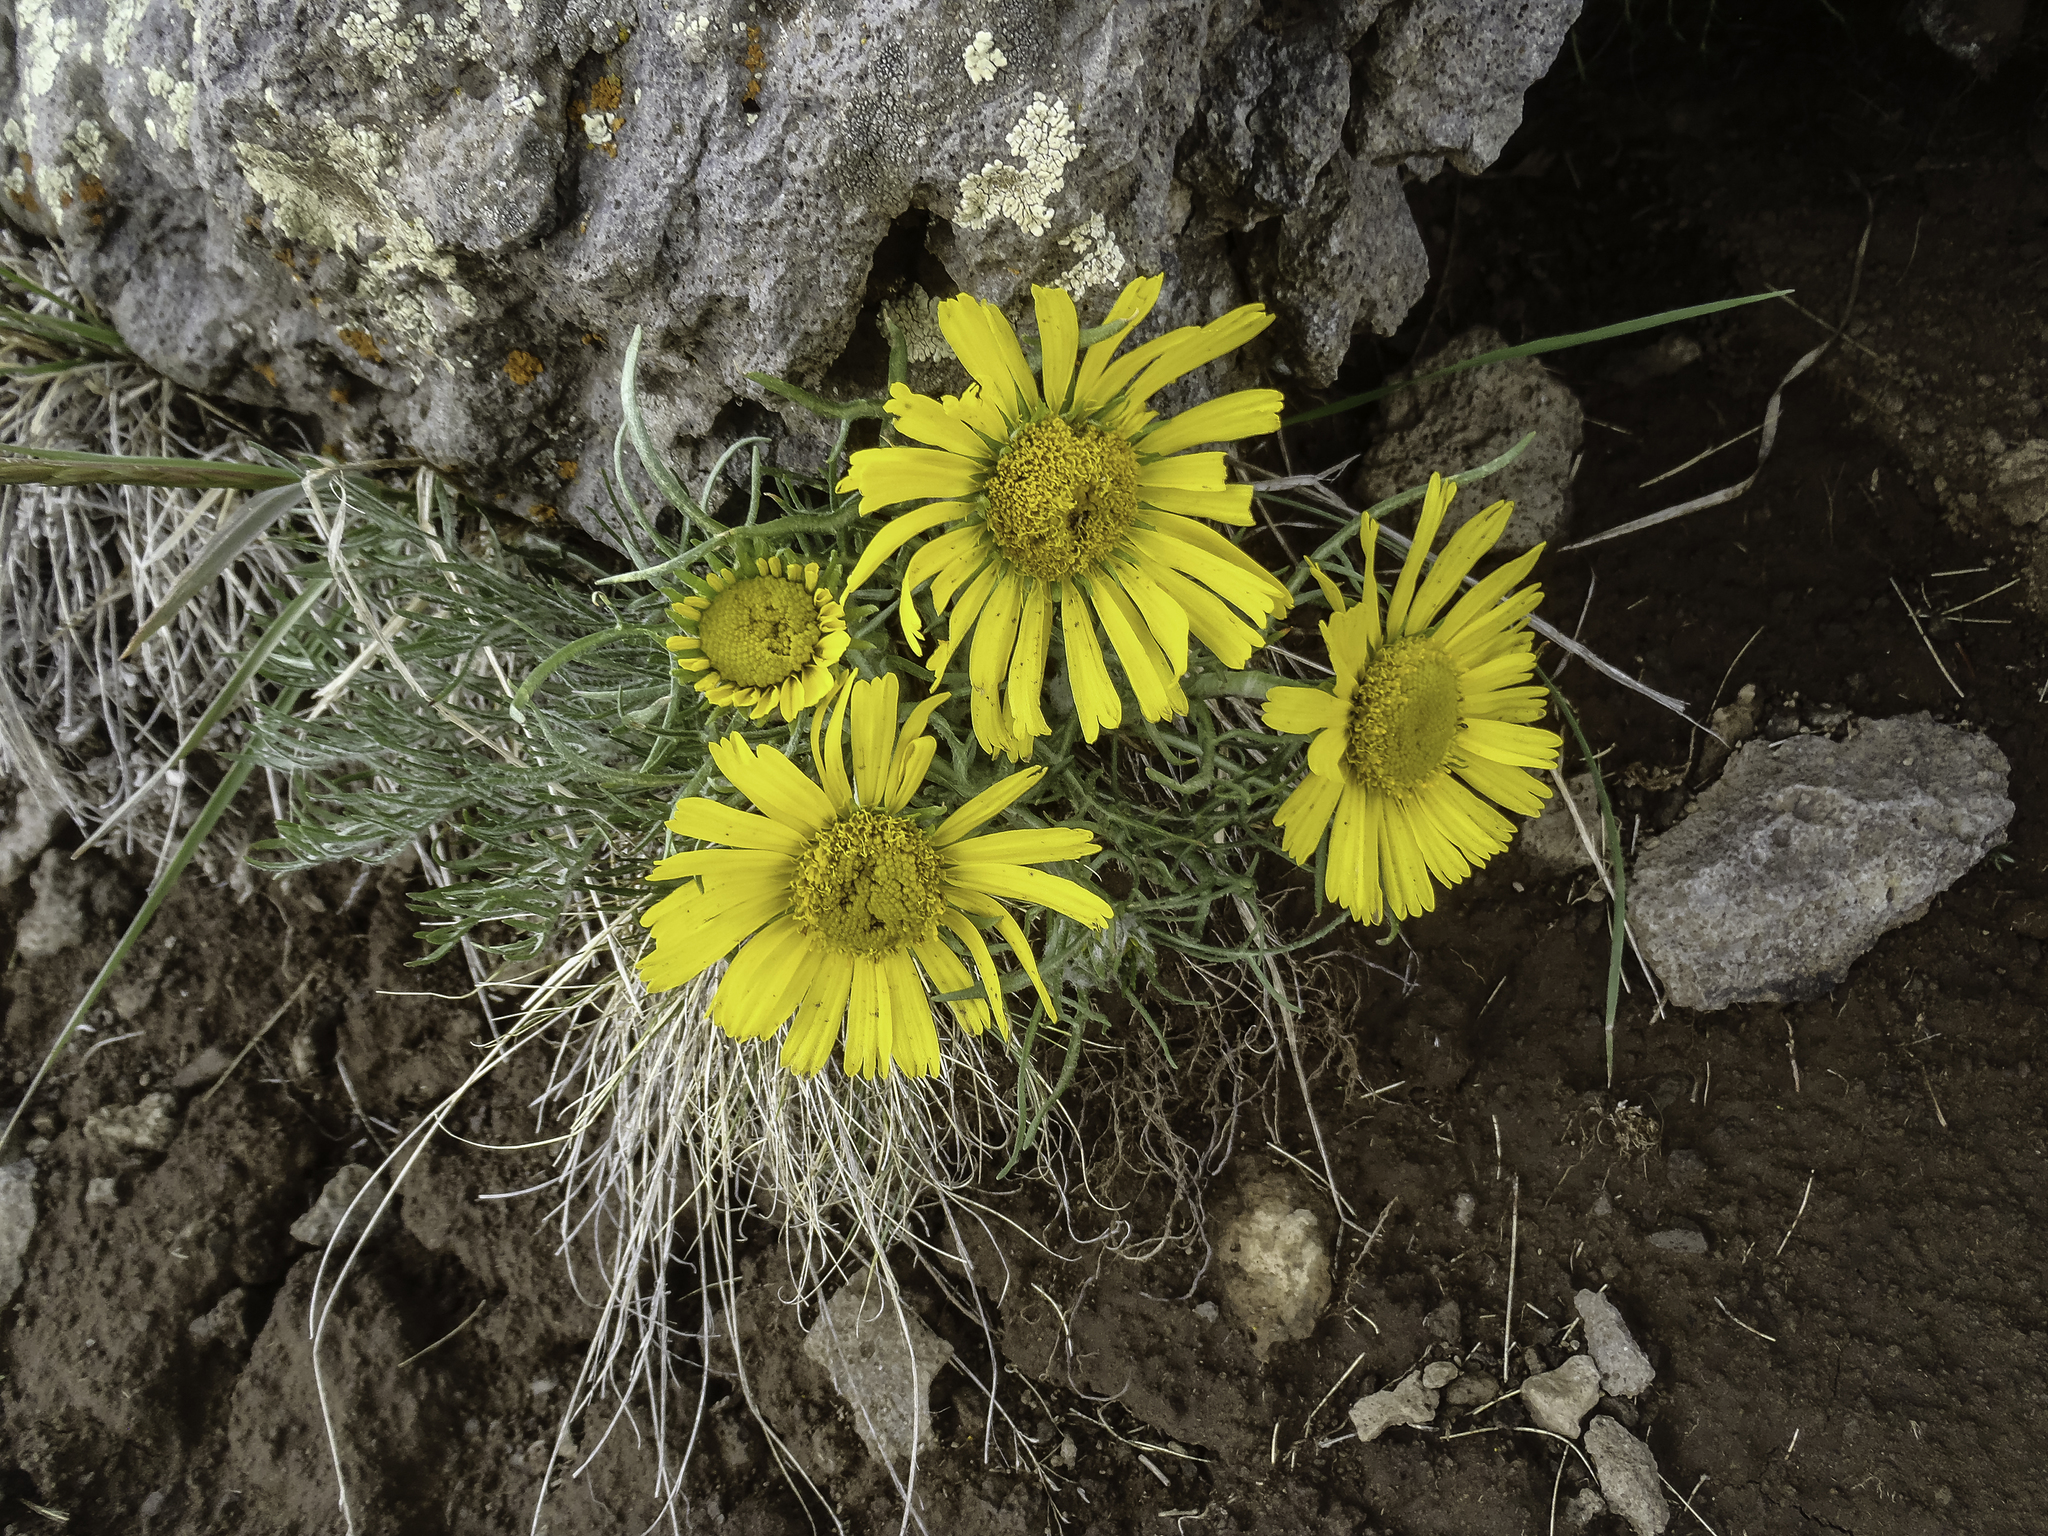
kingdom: Plantae
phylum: Tracheophyta
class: Magnoliopsida
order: Asterales
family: Asteraceae
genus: Hymenoxys
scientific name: Hymenoxys grandiflora
